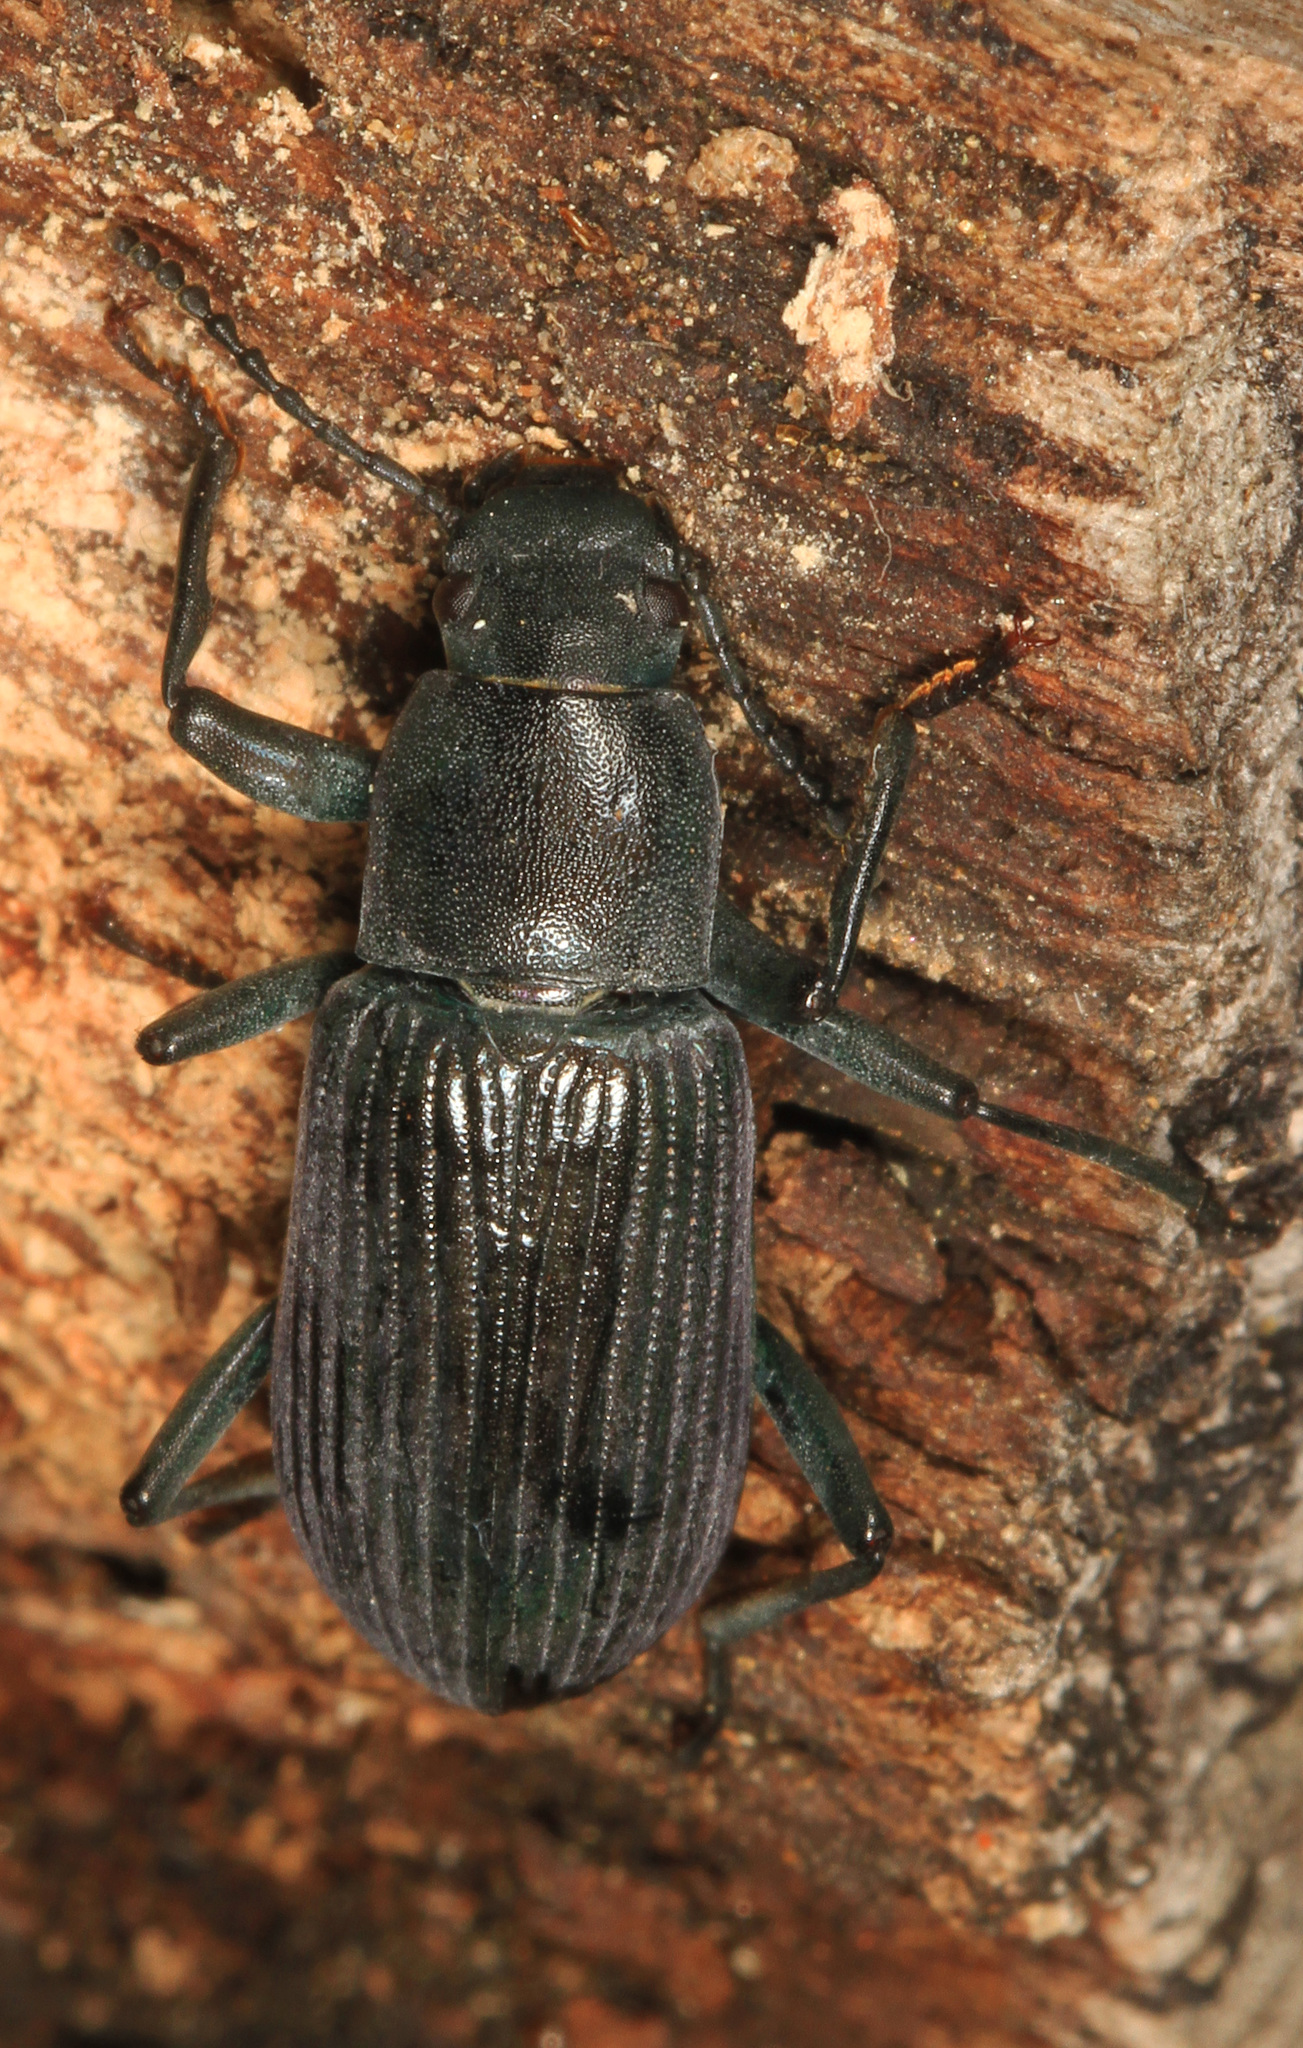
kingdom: Animalia
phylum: Arthropoda
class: Insecta
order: Coleoptera
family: Tenebrionidae
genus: Xylopinus
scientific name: Xylopinus saperdoides
